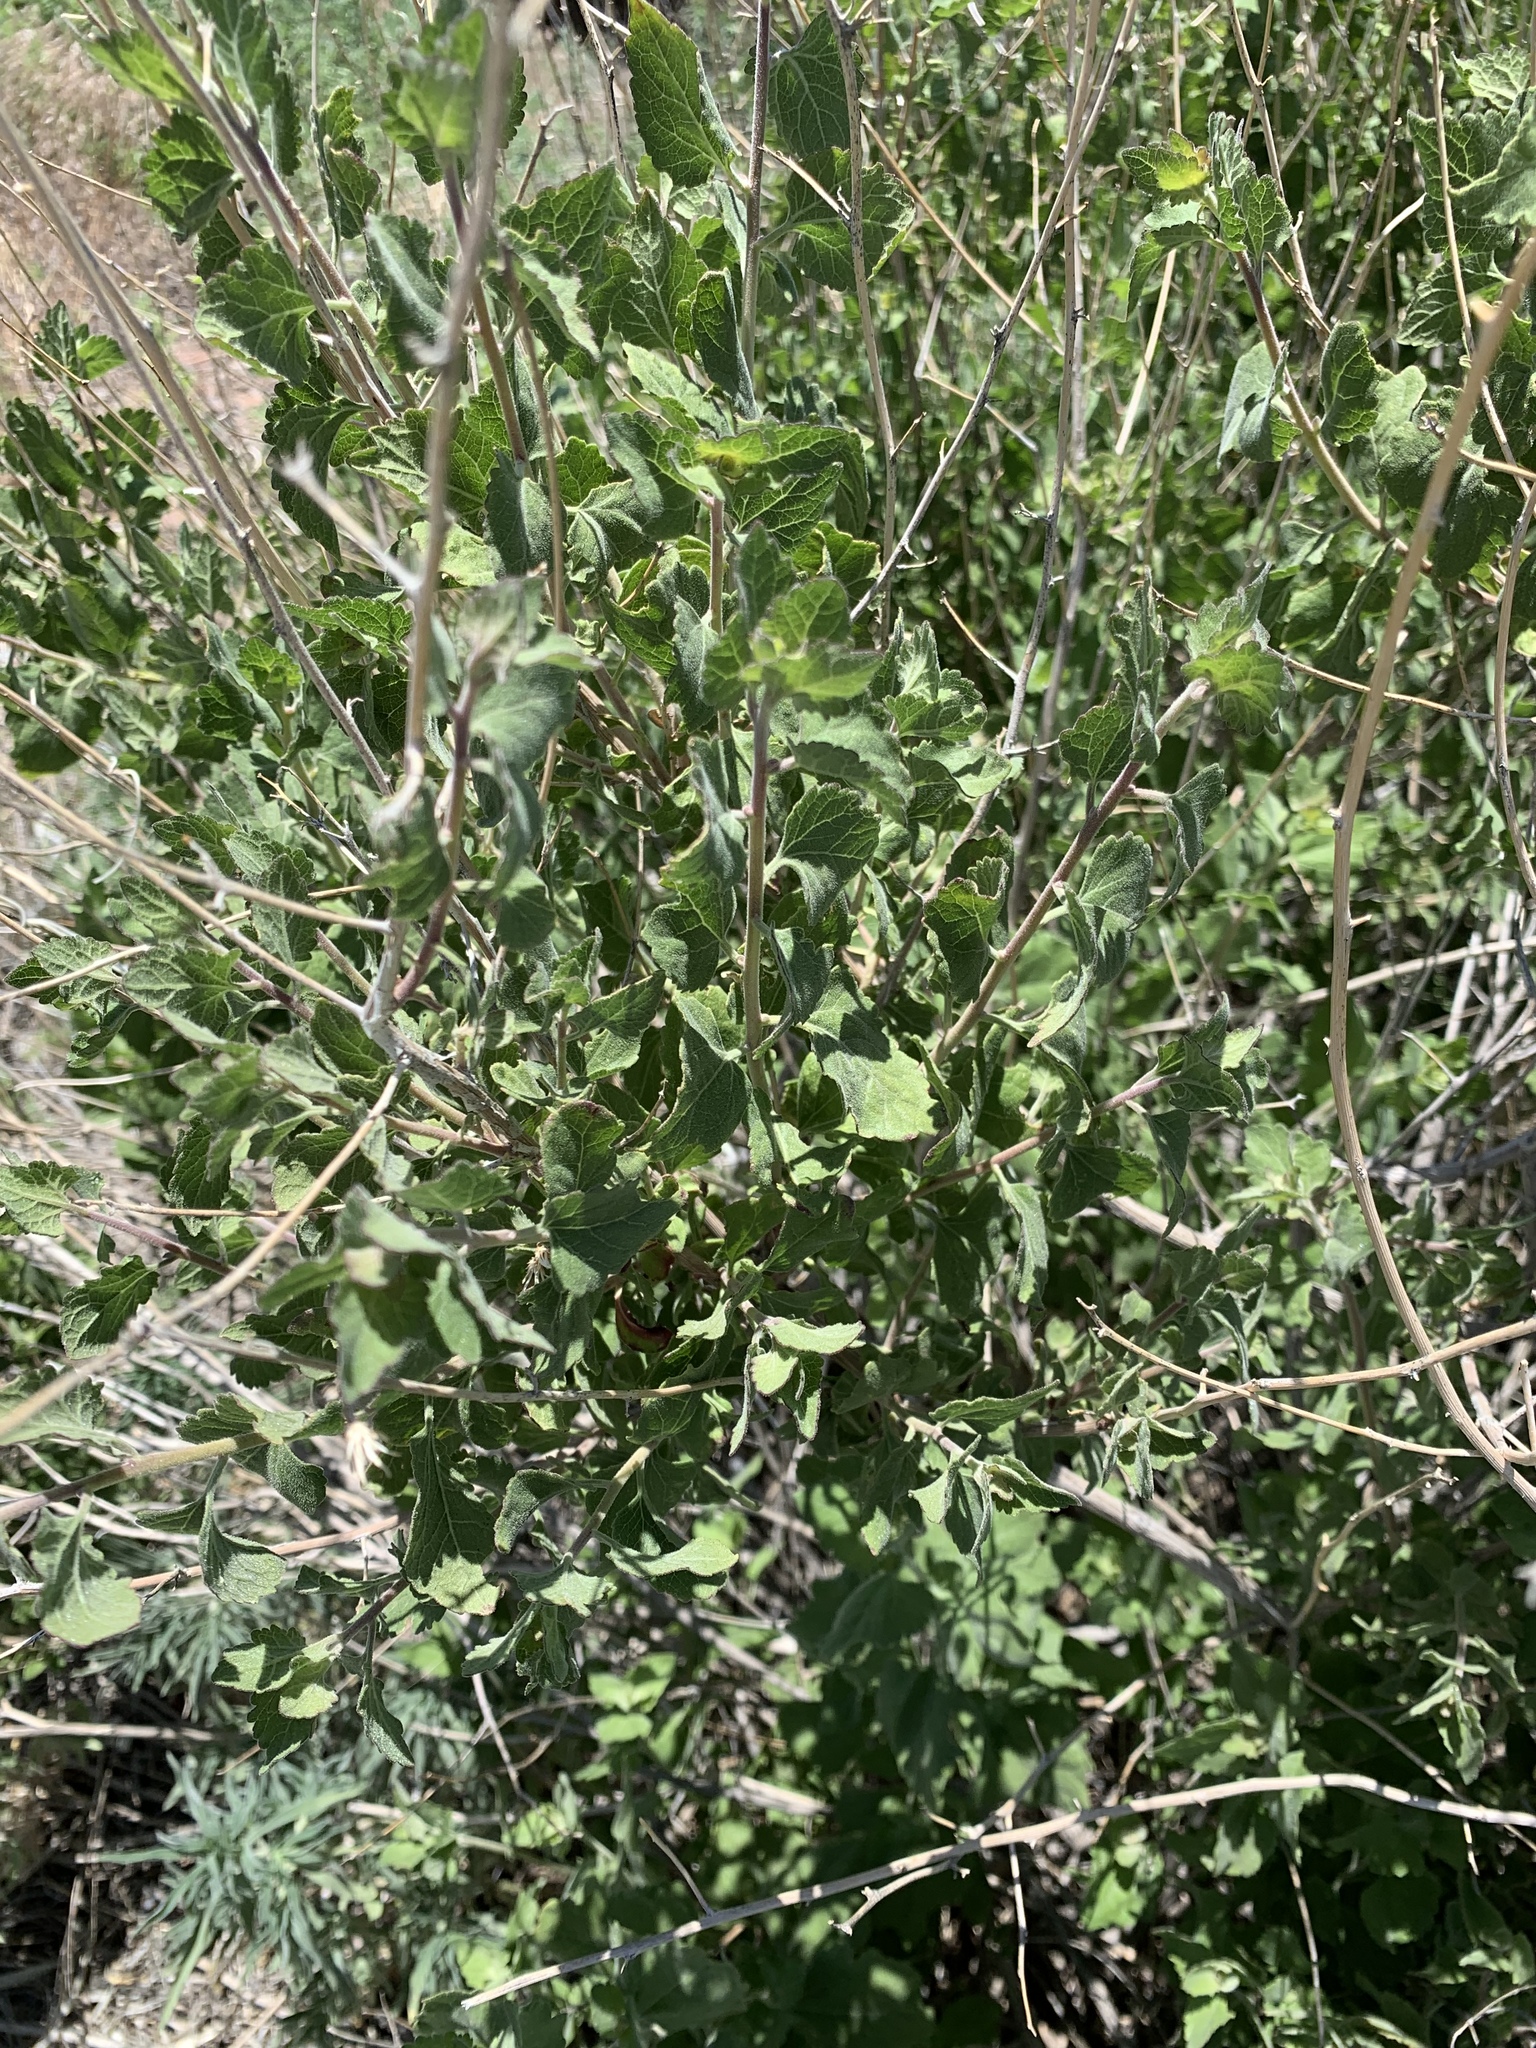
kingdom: Plantae
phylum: Tracheophyta
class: Magnoliopsida
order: Asterales
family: Asteraceae
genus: Brickellia
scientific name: Brickellia californica
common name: California brickellbush
